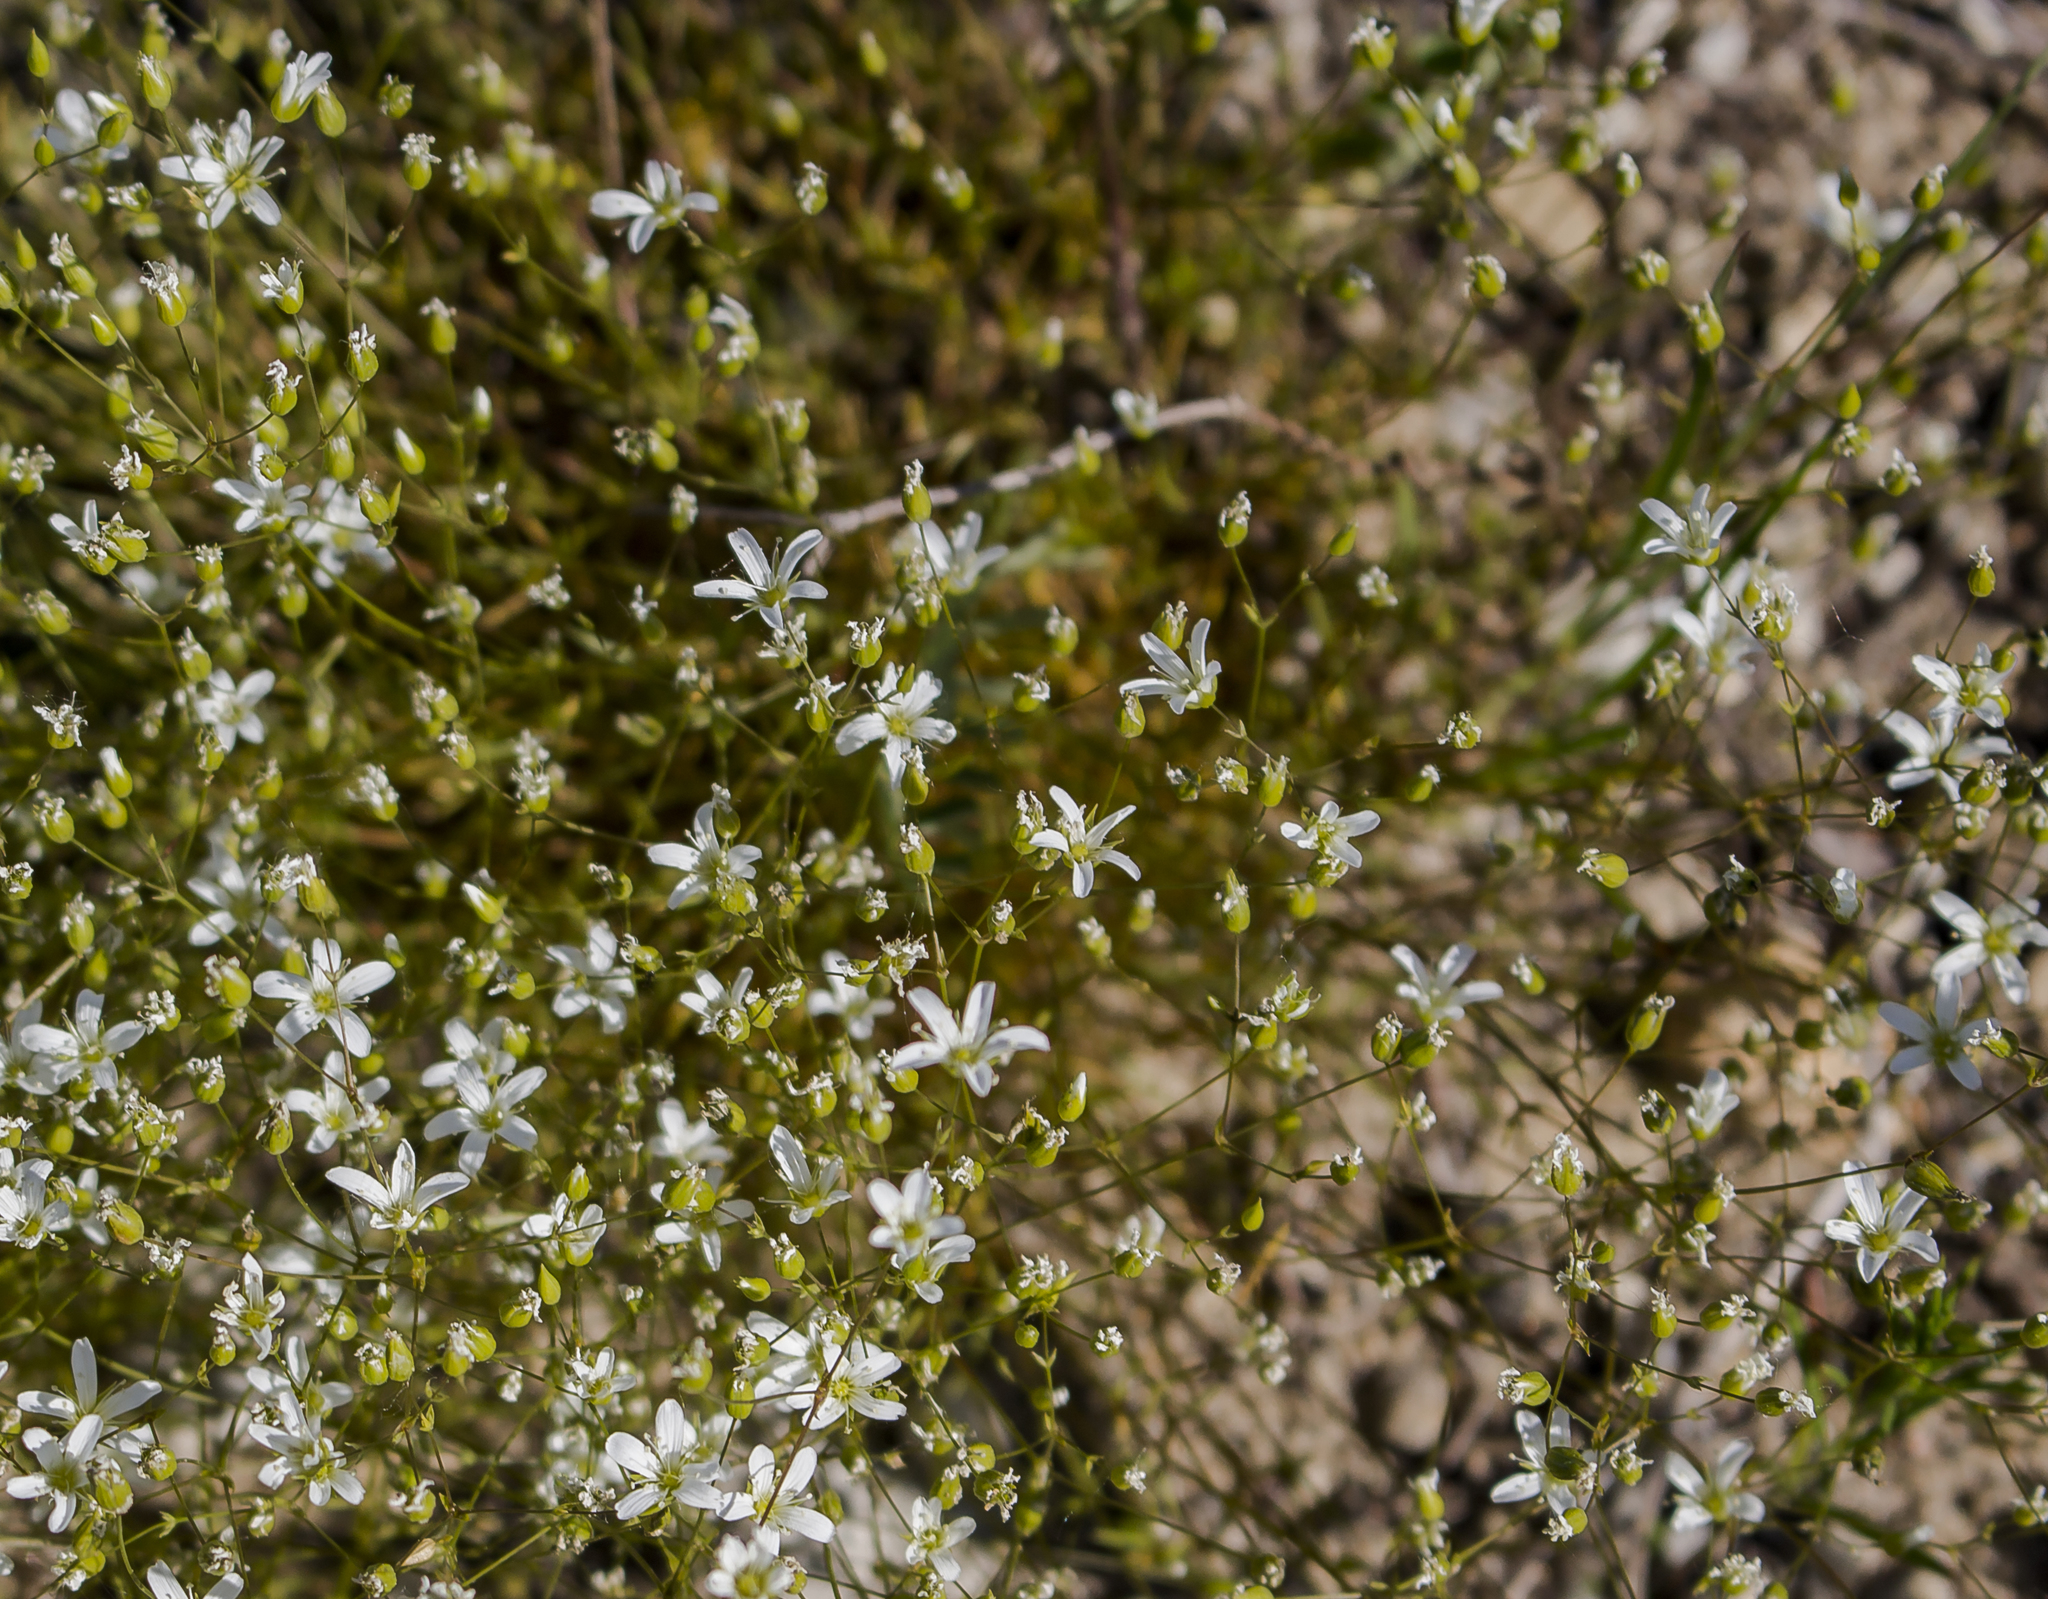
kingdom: Plantae
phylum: Tracheophyta
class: Magnoliopsida
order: Caryophyllales
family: Caryophyllaceae
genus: Sabulina
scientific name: Sabulina michauxii
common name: Michaux's stitchwort
